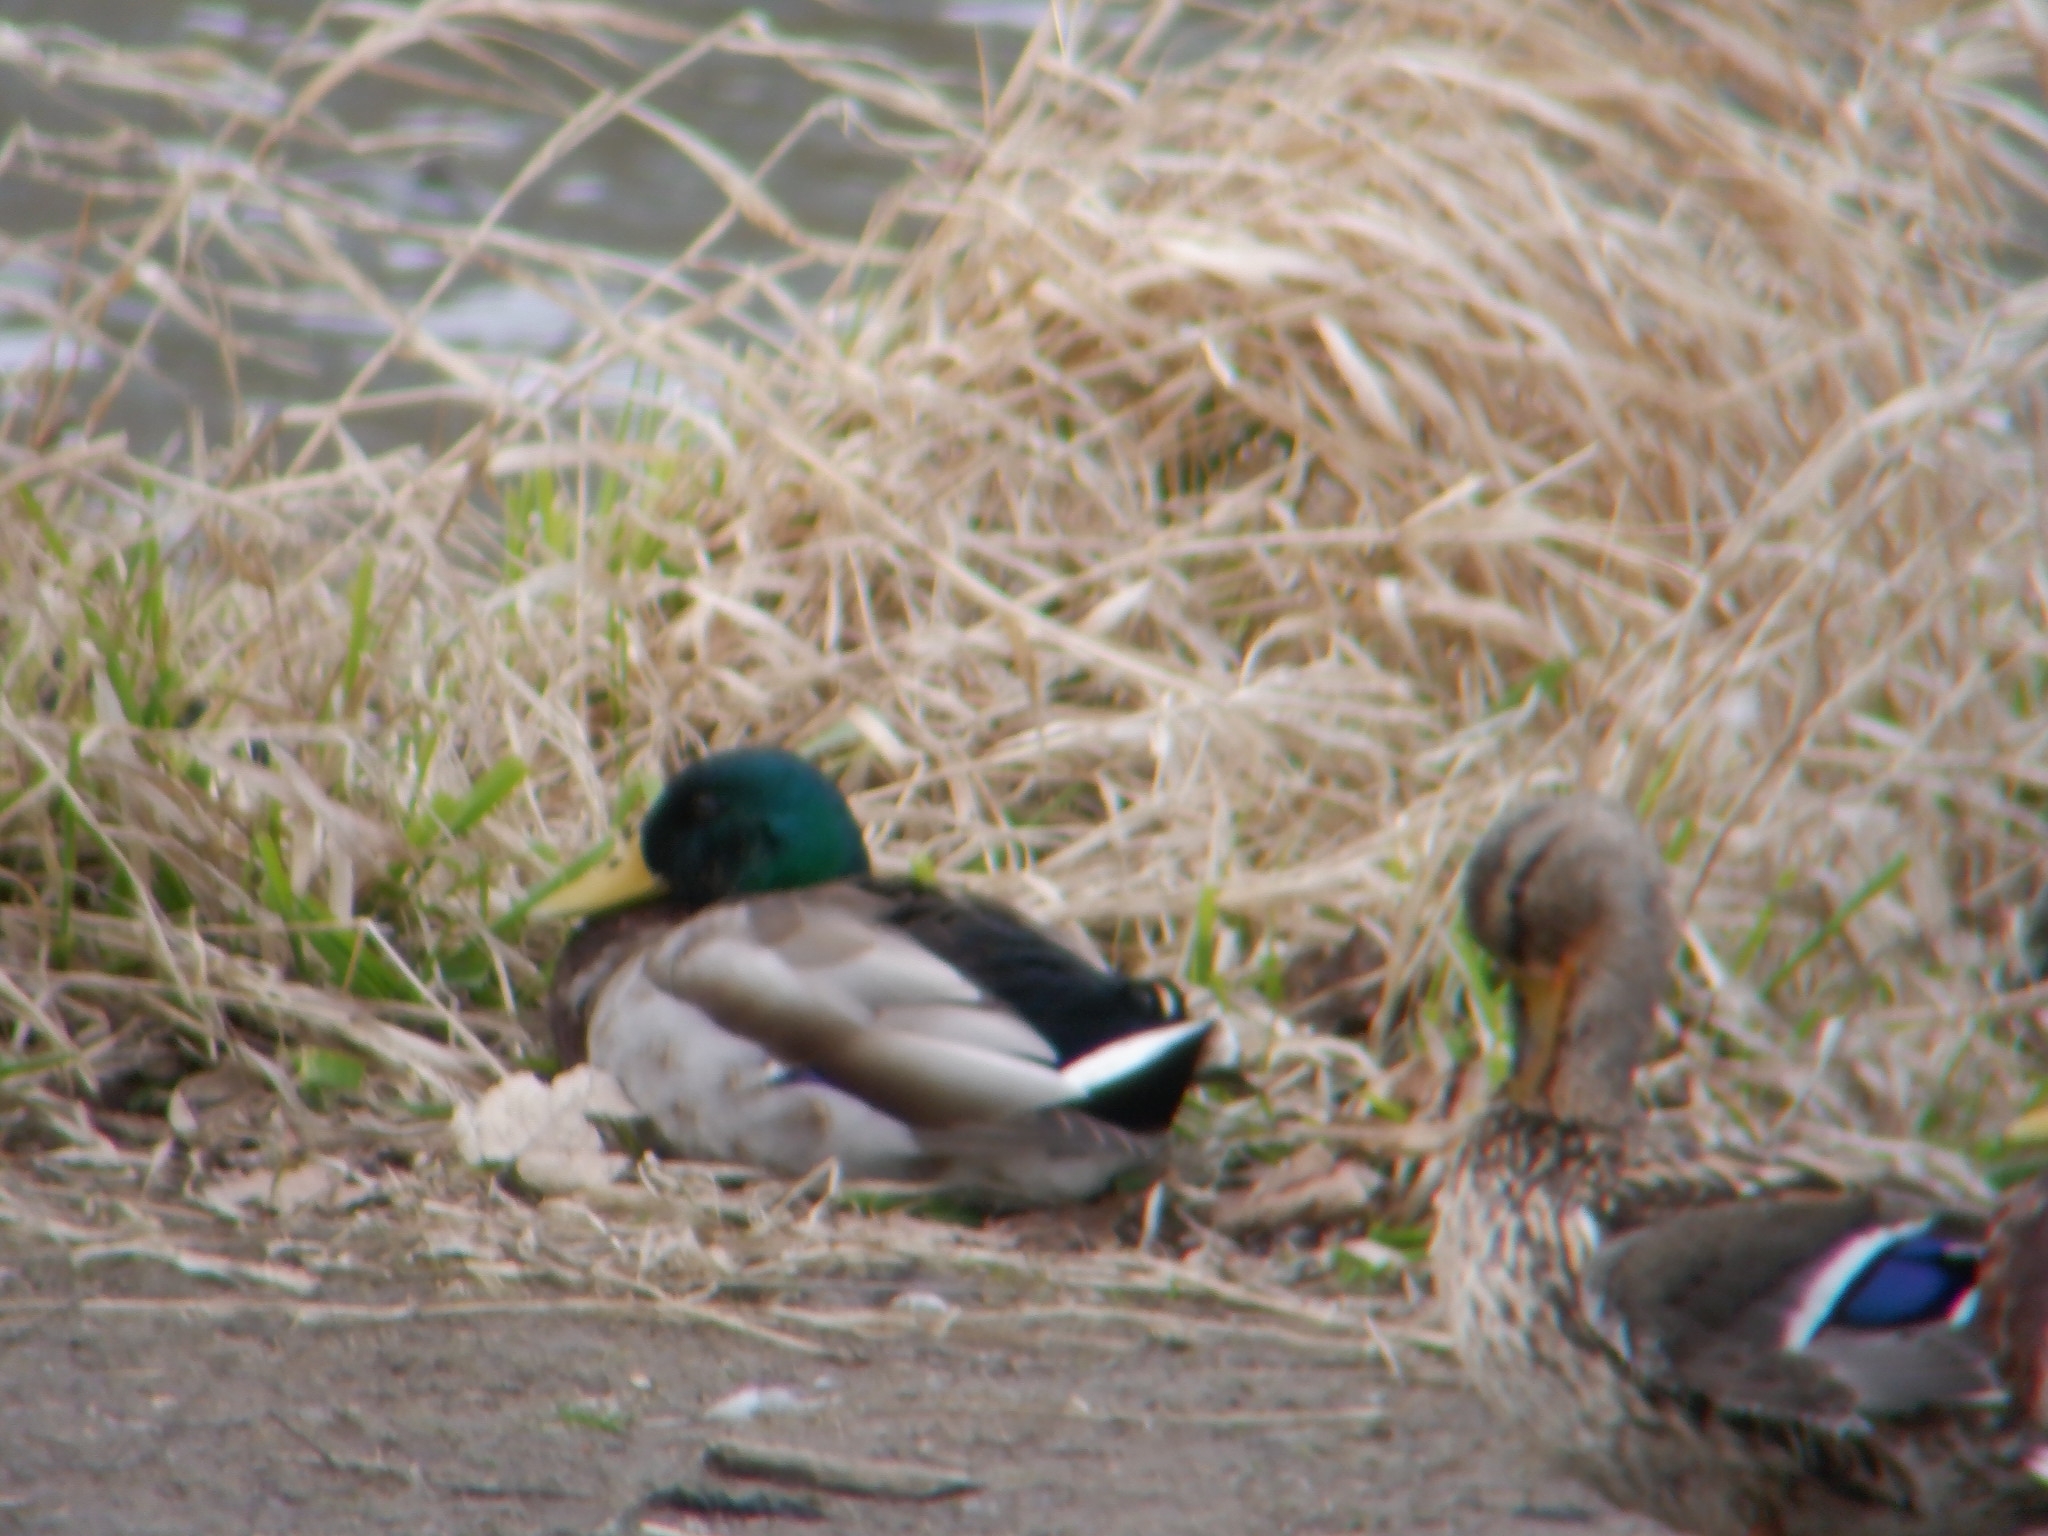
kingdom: Animalia
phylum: Chordata
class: Aves
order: Anseriformes
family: Anatidae
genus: Anas
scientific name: Anas platyrhynchos
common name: Mallard
